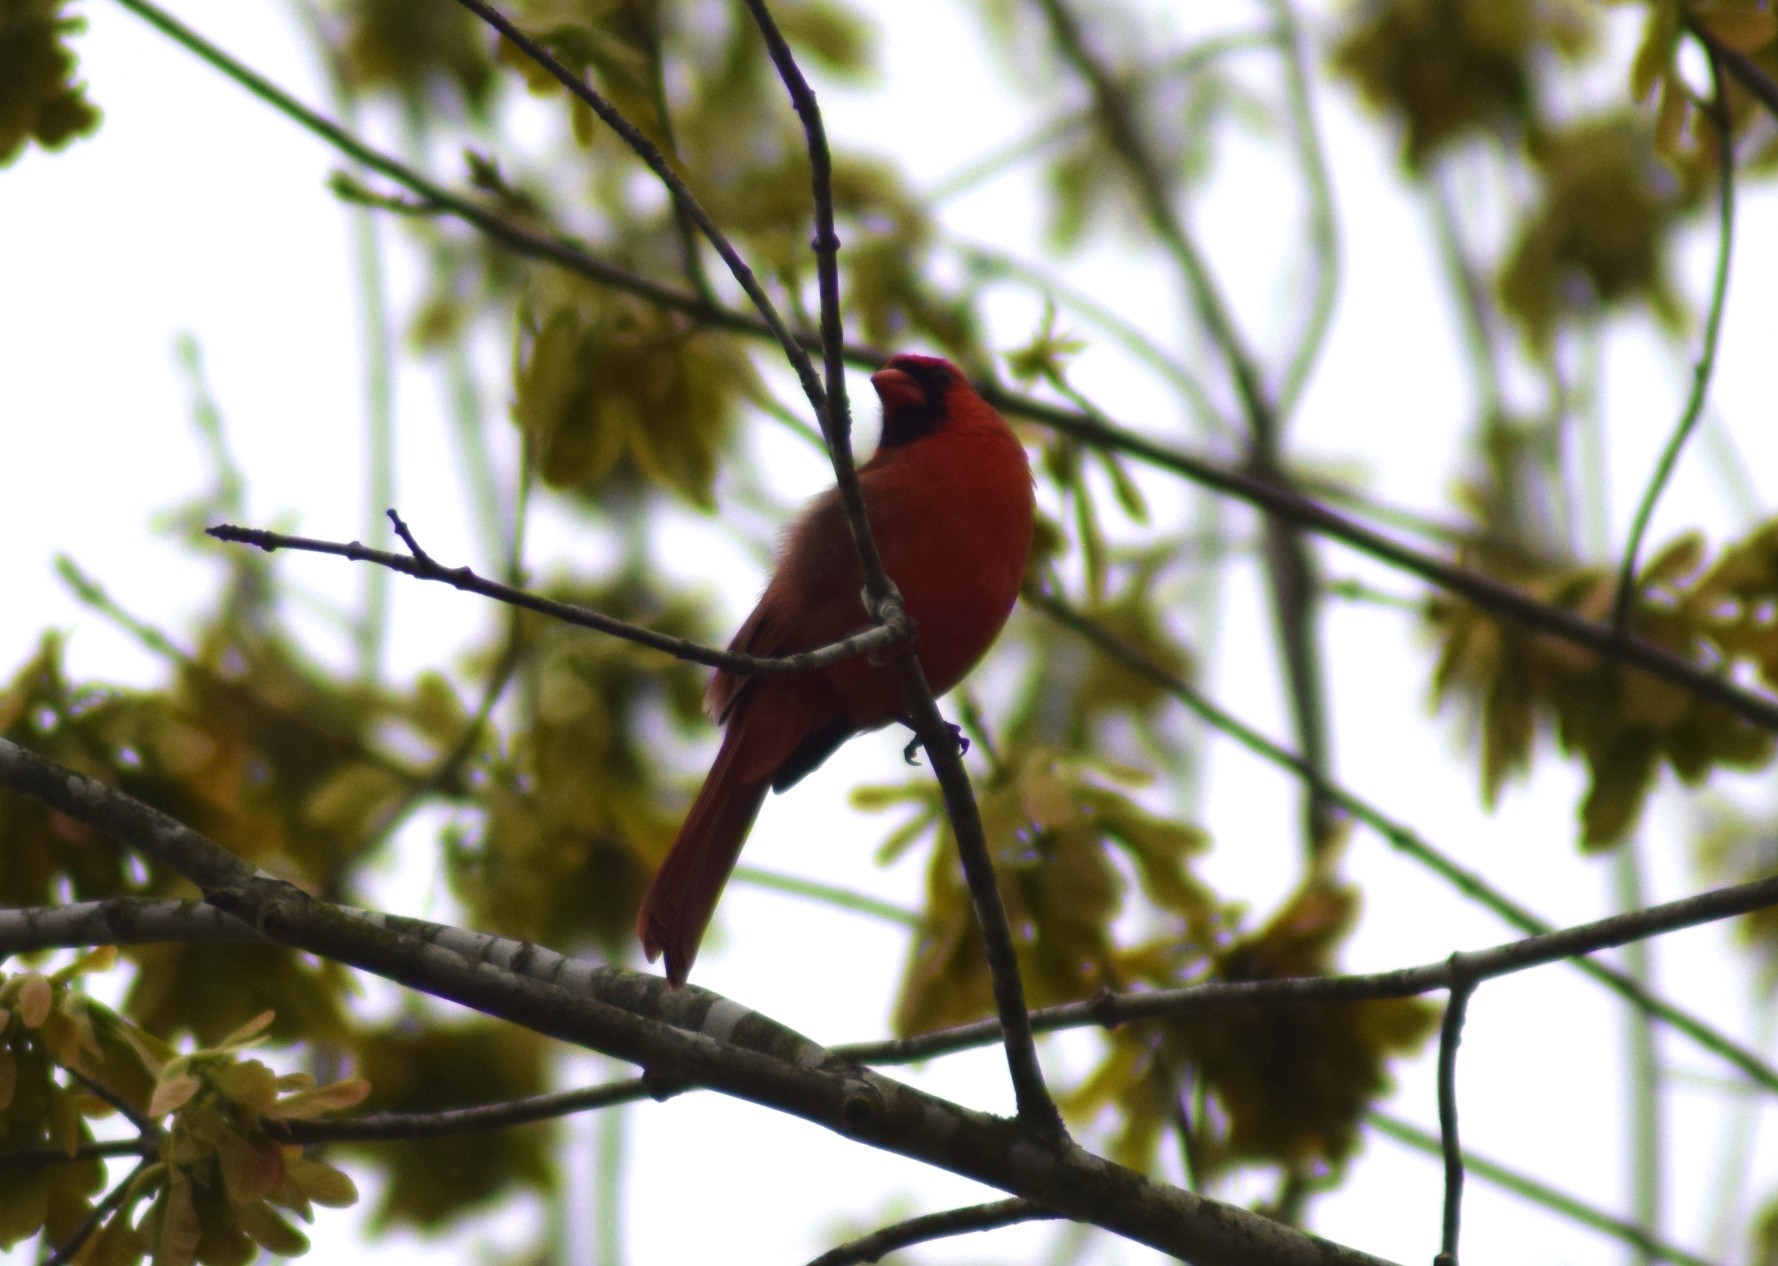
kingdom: Animalia
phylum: Chordata
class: Aves
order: Passeriformes
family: Cardinalidae
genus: Cardinalis
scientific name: Cardinalis cardinalis
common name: Northern cardinal
